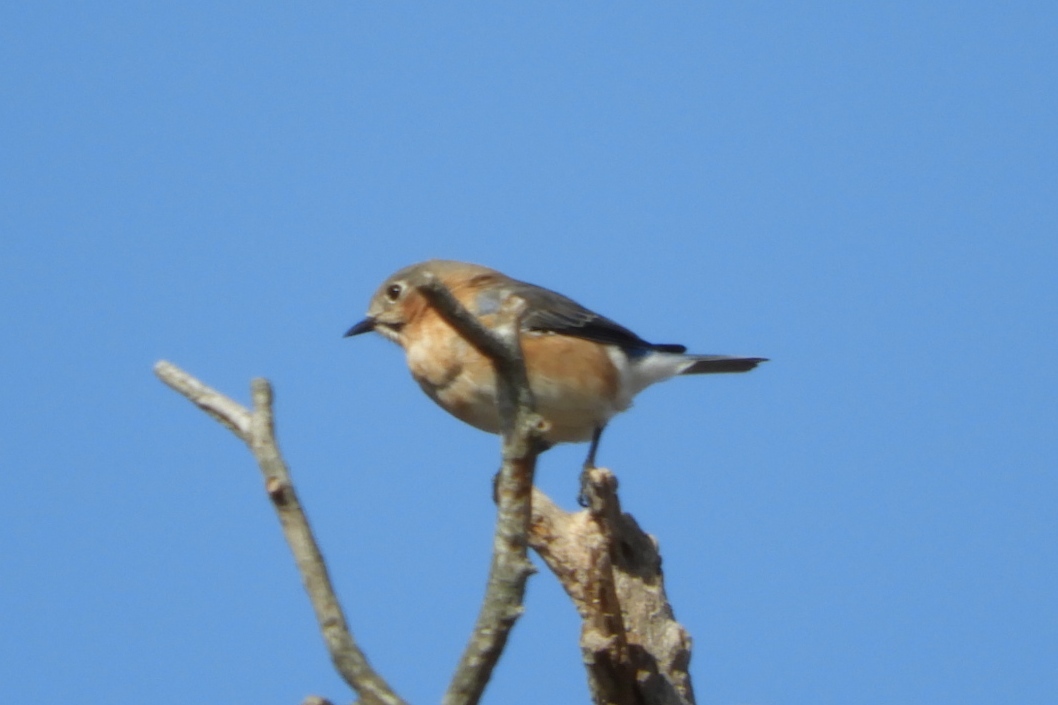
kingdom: Animalia
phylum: Chordata
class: Aves
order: Passeriformes
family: Turdidae
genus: Sialia
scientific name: Sialia sialis
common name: Eastern bluebird
